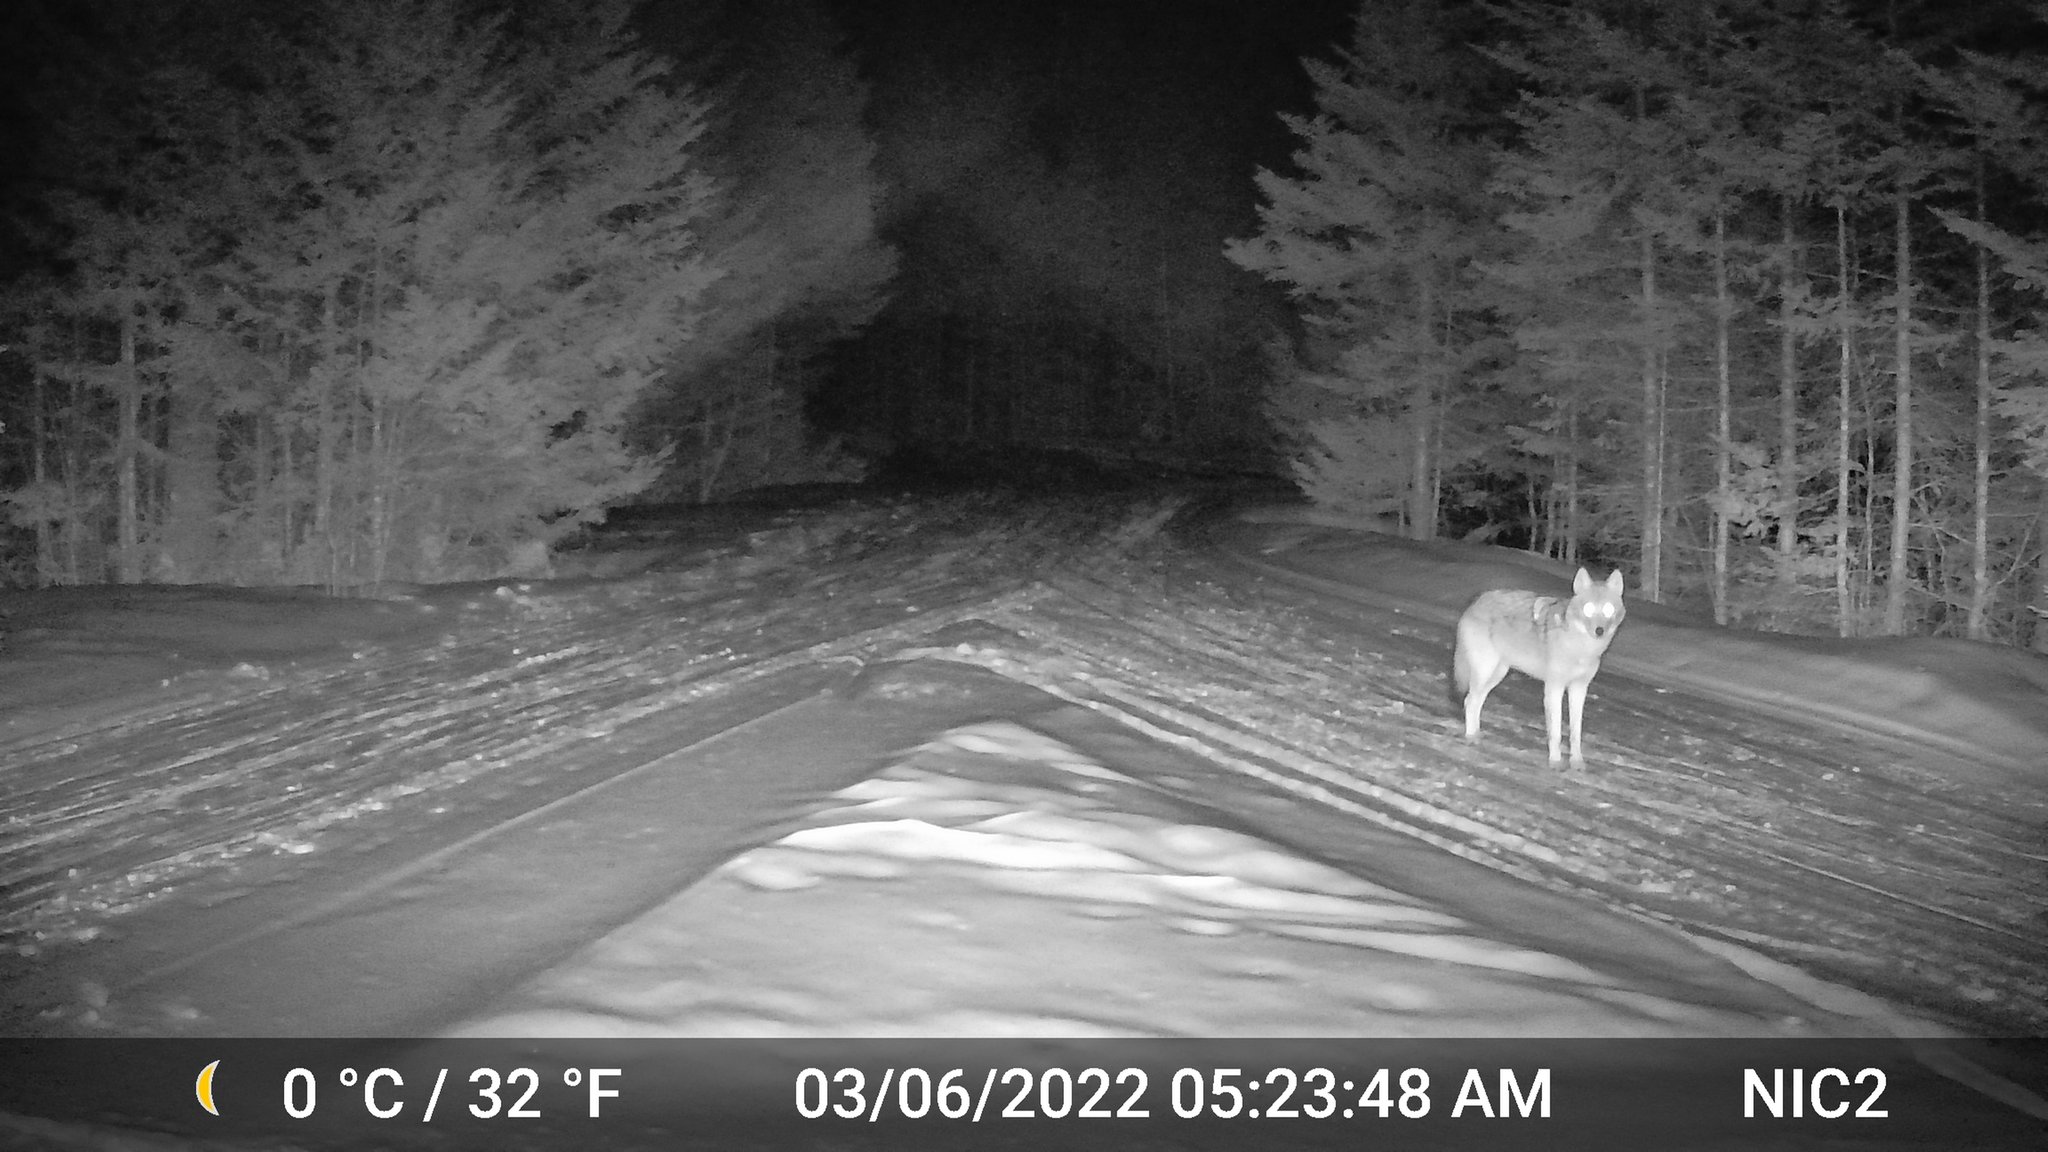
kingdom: Animalia
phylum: Chordata
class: Mammalia
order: Carnivora
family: Canidae
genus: Canis
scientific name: Canis latrans
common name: Coyote
